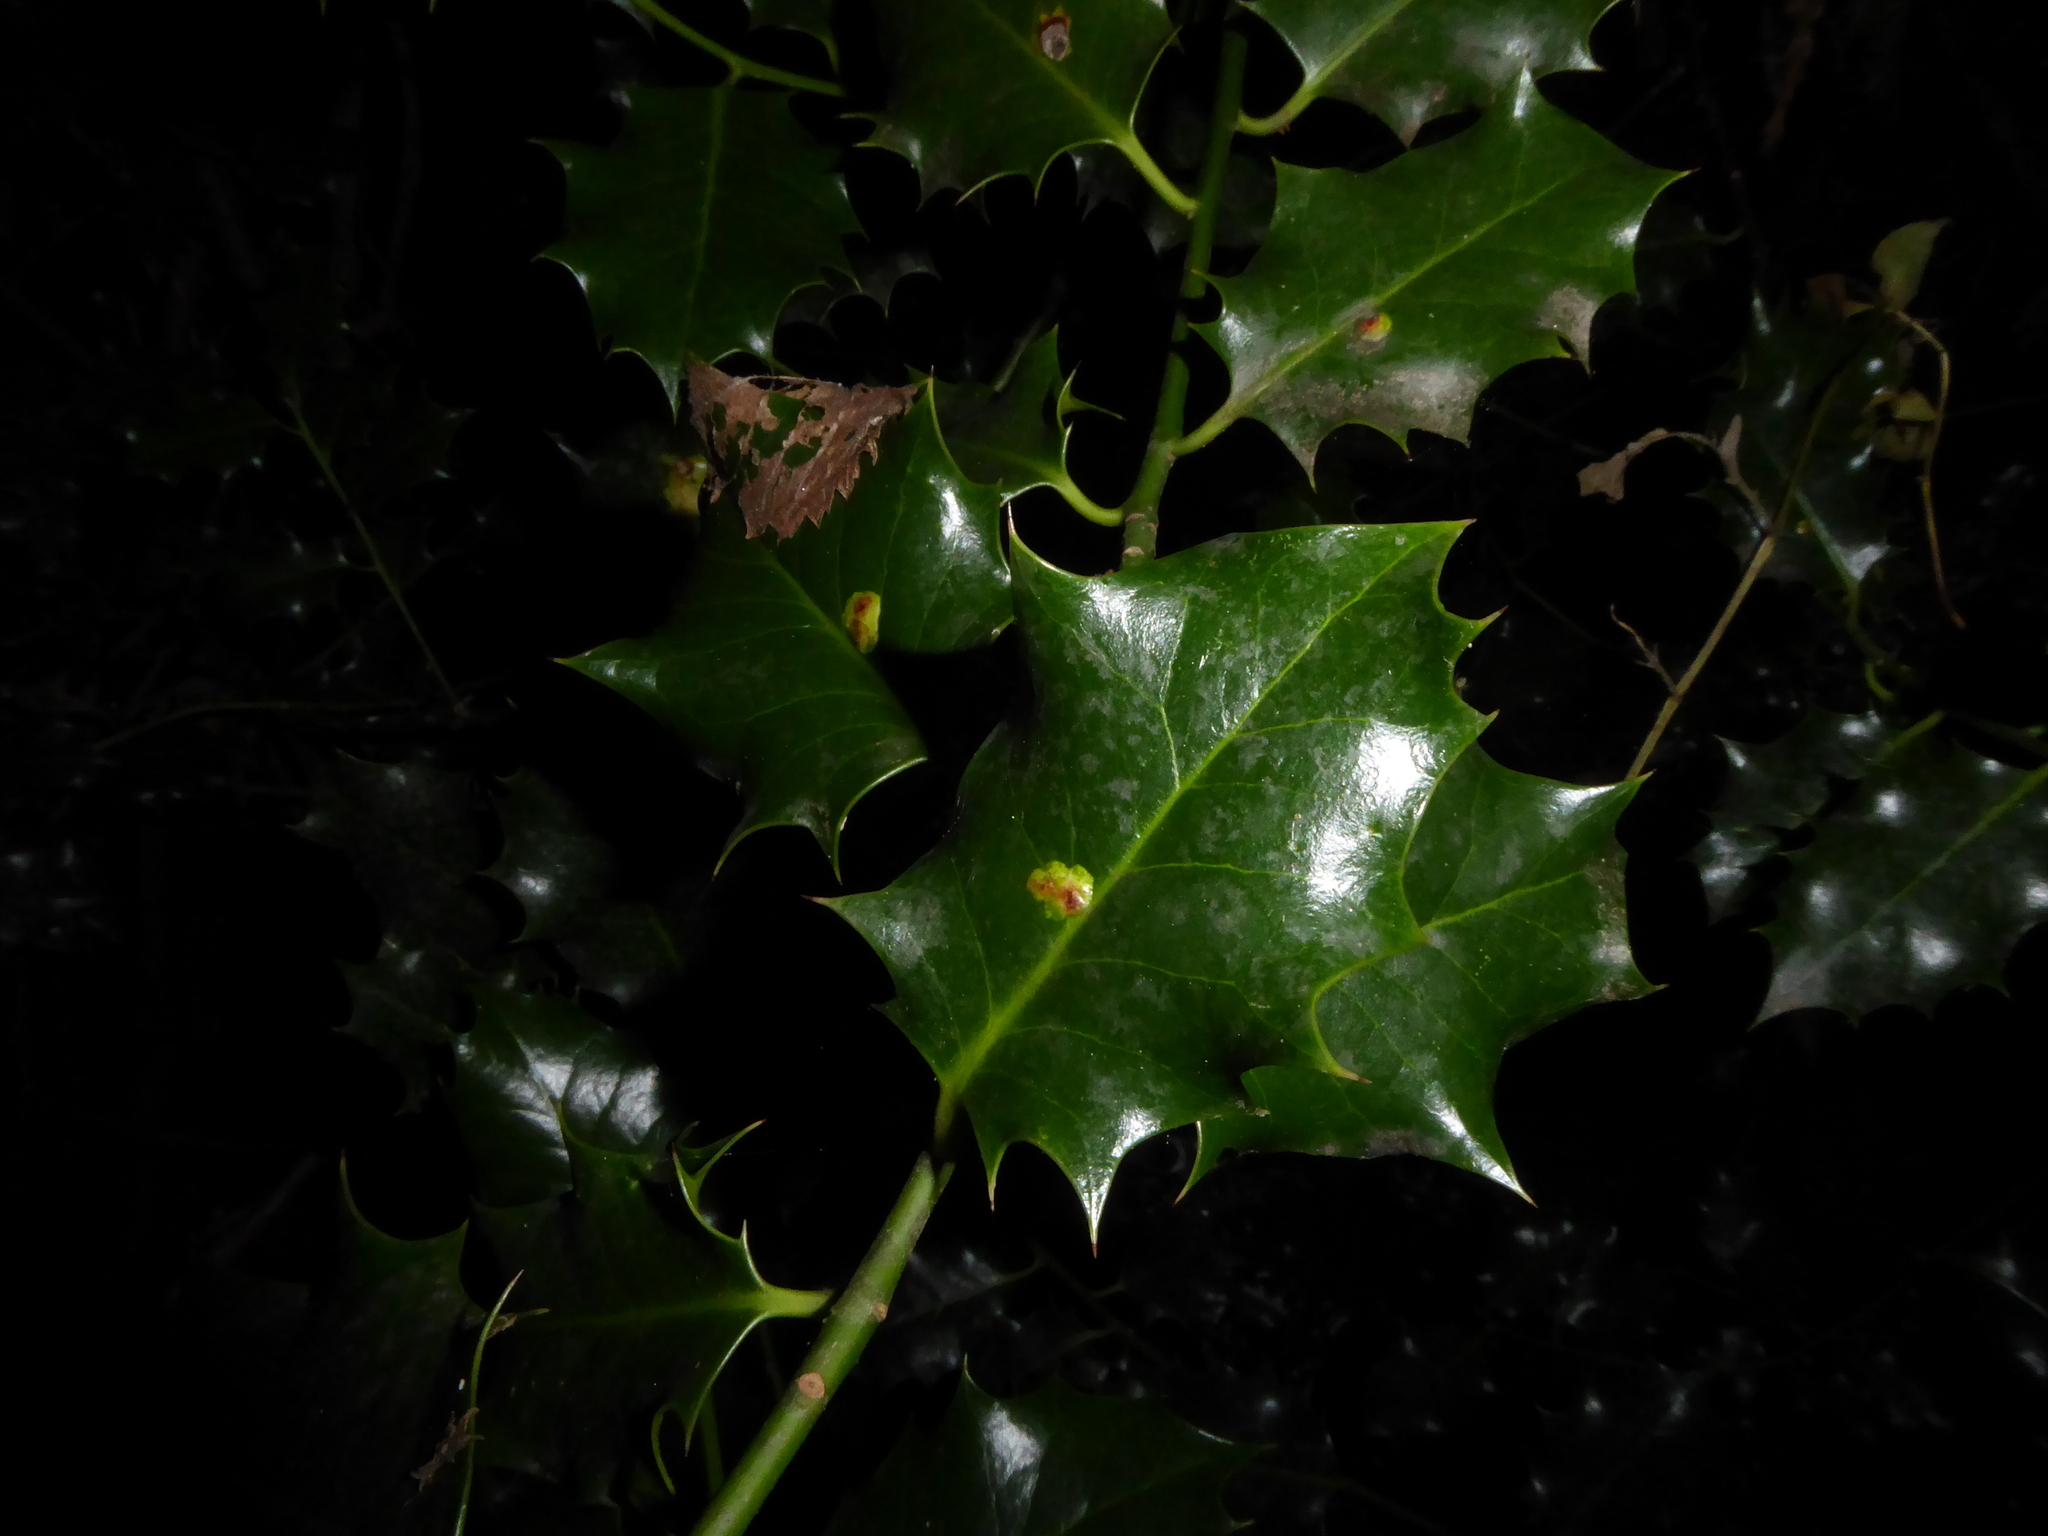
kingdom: Plantae
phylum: Tracheophyta
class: Magnoliopsida
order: Aquifoliales
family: Aquifoliaceae
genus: Ilex
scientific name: Ilex aquifolium
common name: English holly
